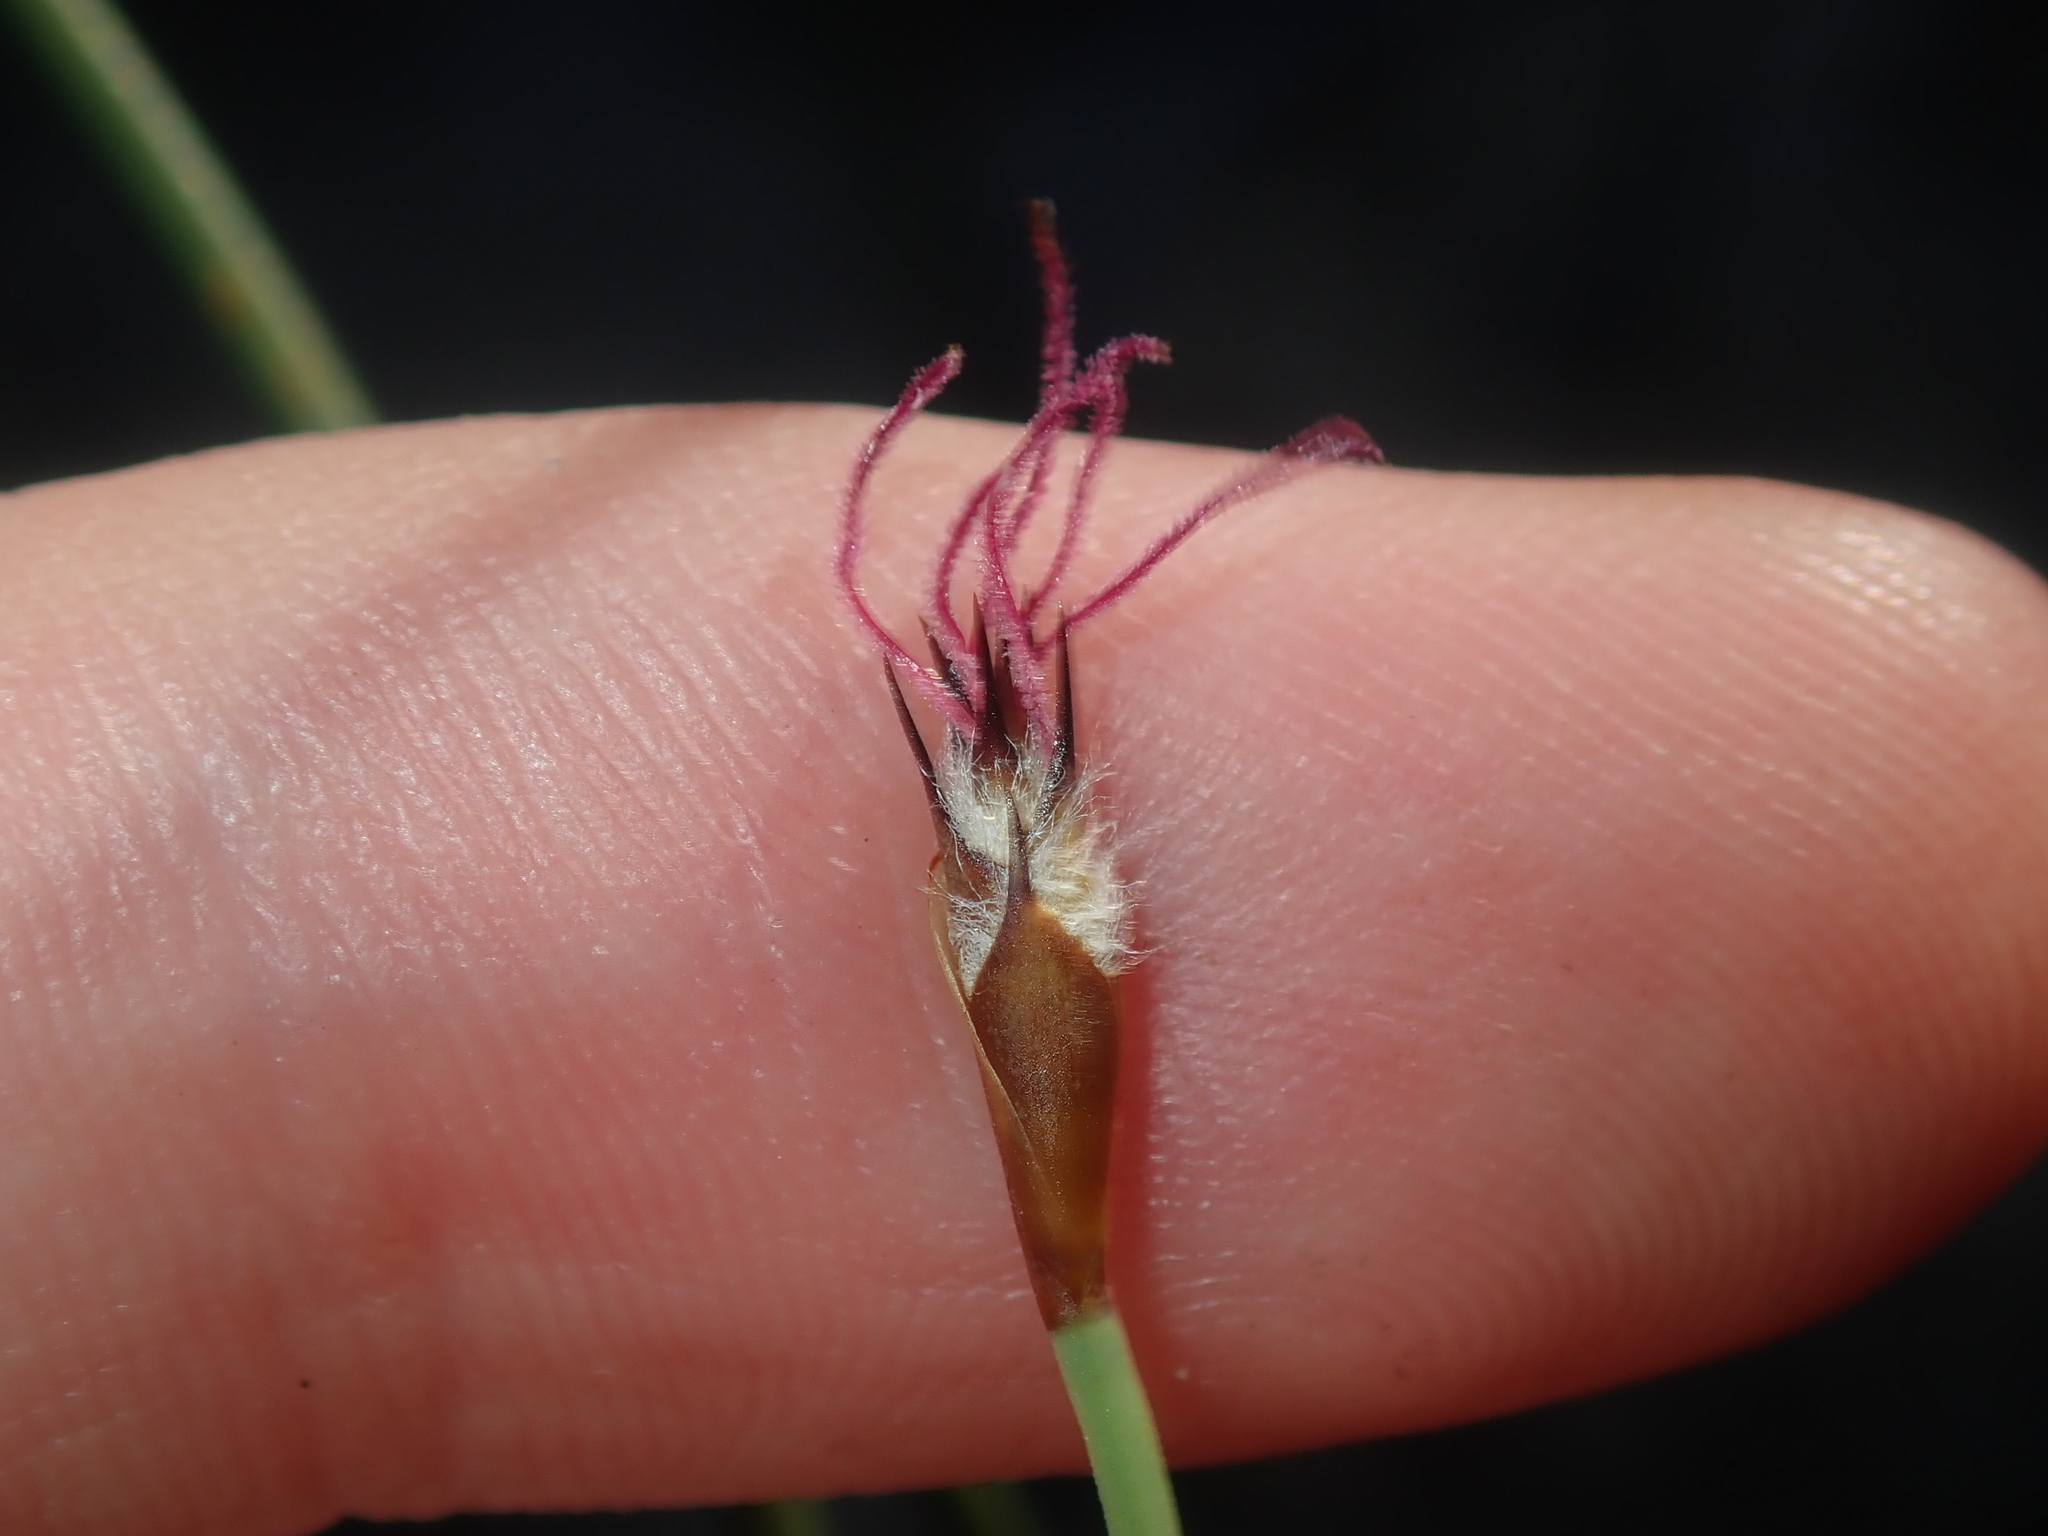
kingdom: Plantae
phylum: Tracheophyta
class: Liliopsida
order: Poales
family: Restionaceae
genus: Lepidobolus
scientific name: Lepidobolus preissianus
